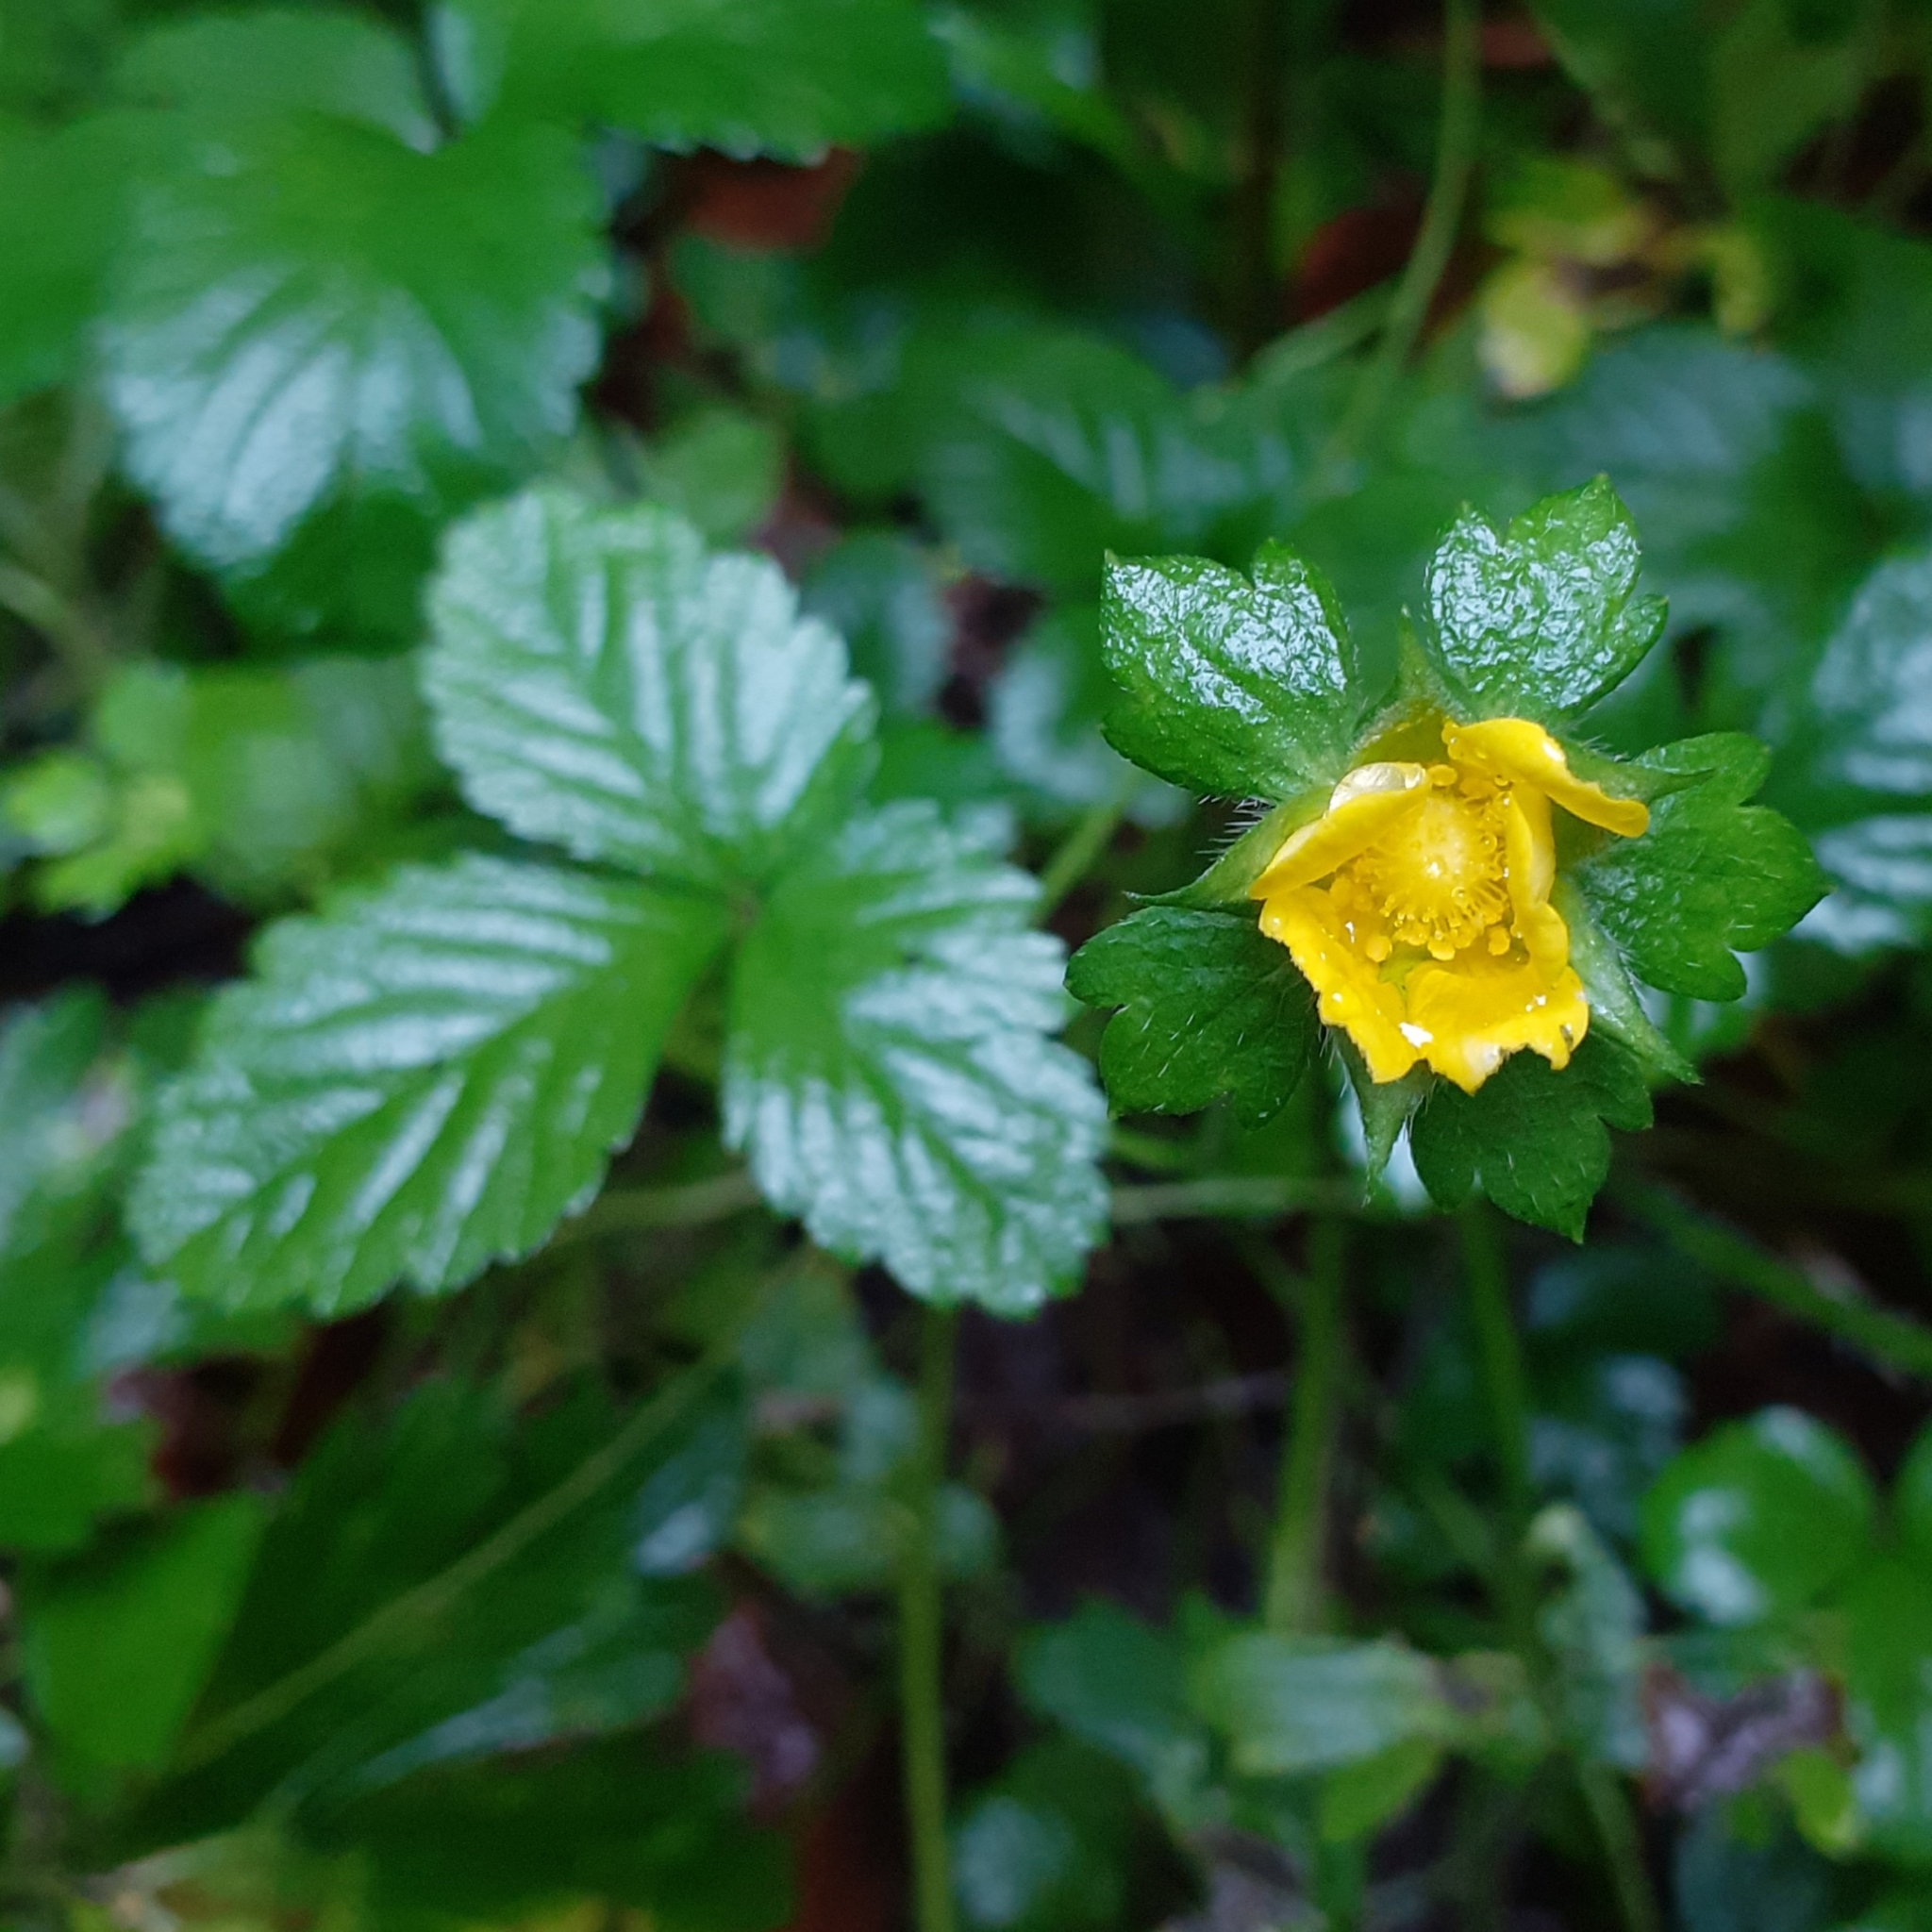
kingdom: Plantae
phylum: Tracheophyta
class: Magnoliopsida
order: Rosales
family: Rosaceae
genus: Potentilla
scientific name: Potentilla indica
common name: Yellow-flowered strawberry
